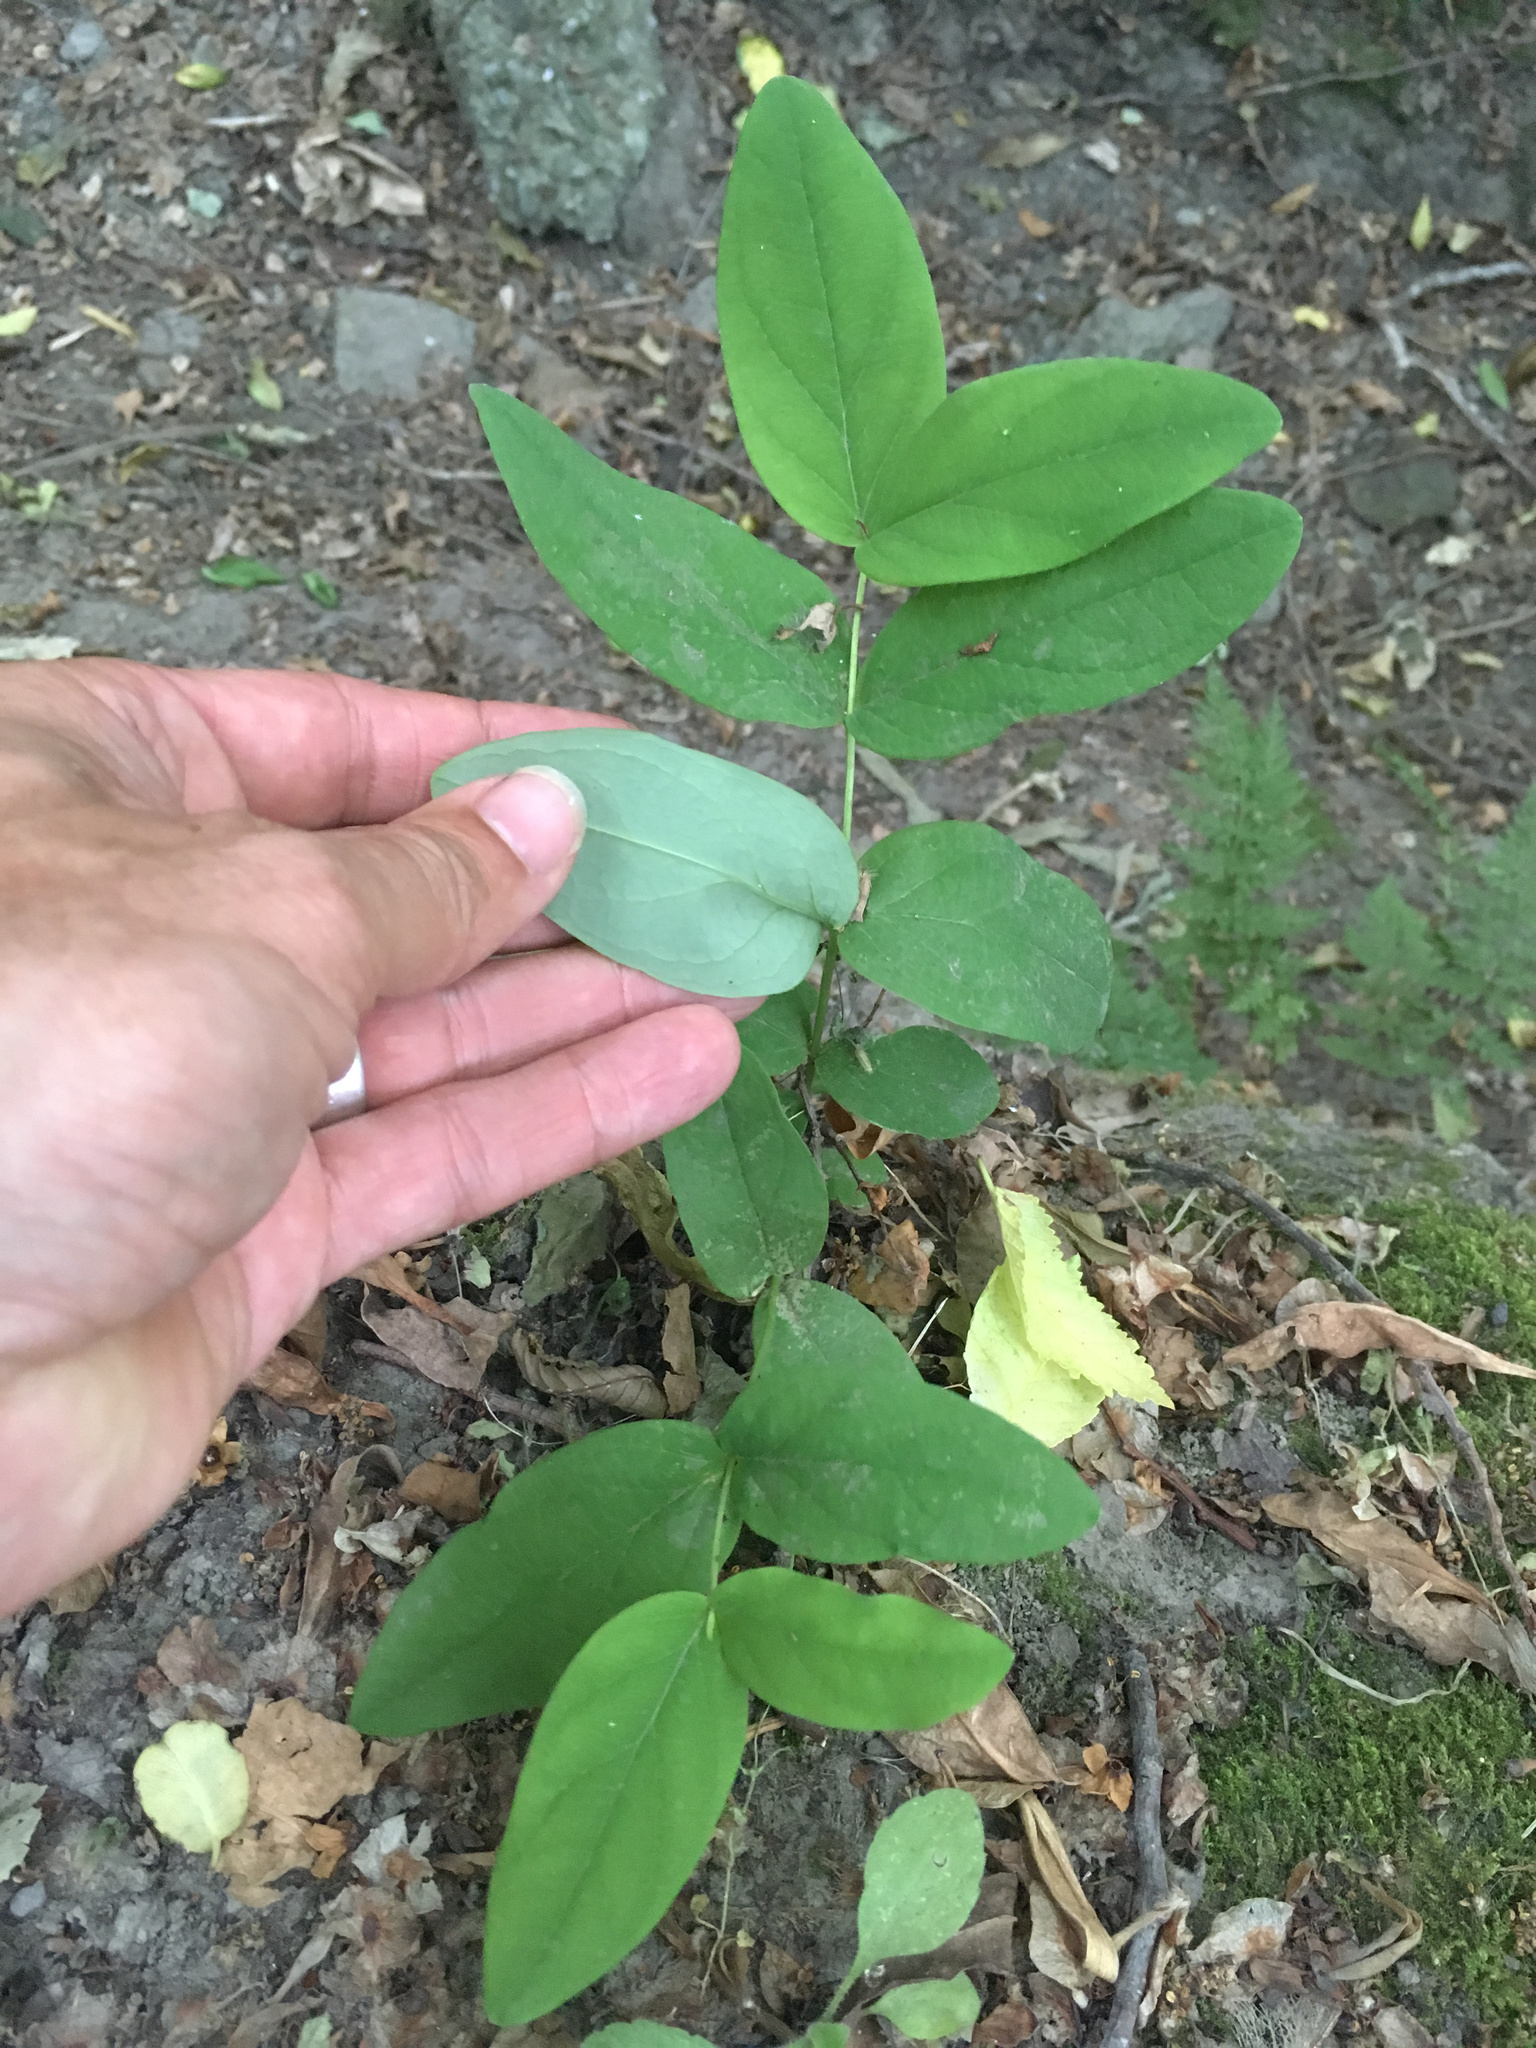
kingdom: Plantae
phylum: Tracheophyta
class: Magnoliopsida
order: Malpighiales
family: Hypericaceae
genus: Hypericum
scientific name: Hypericum androsaemum
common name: Sweet-amber
